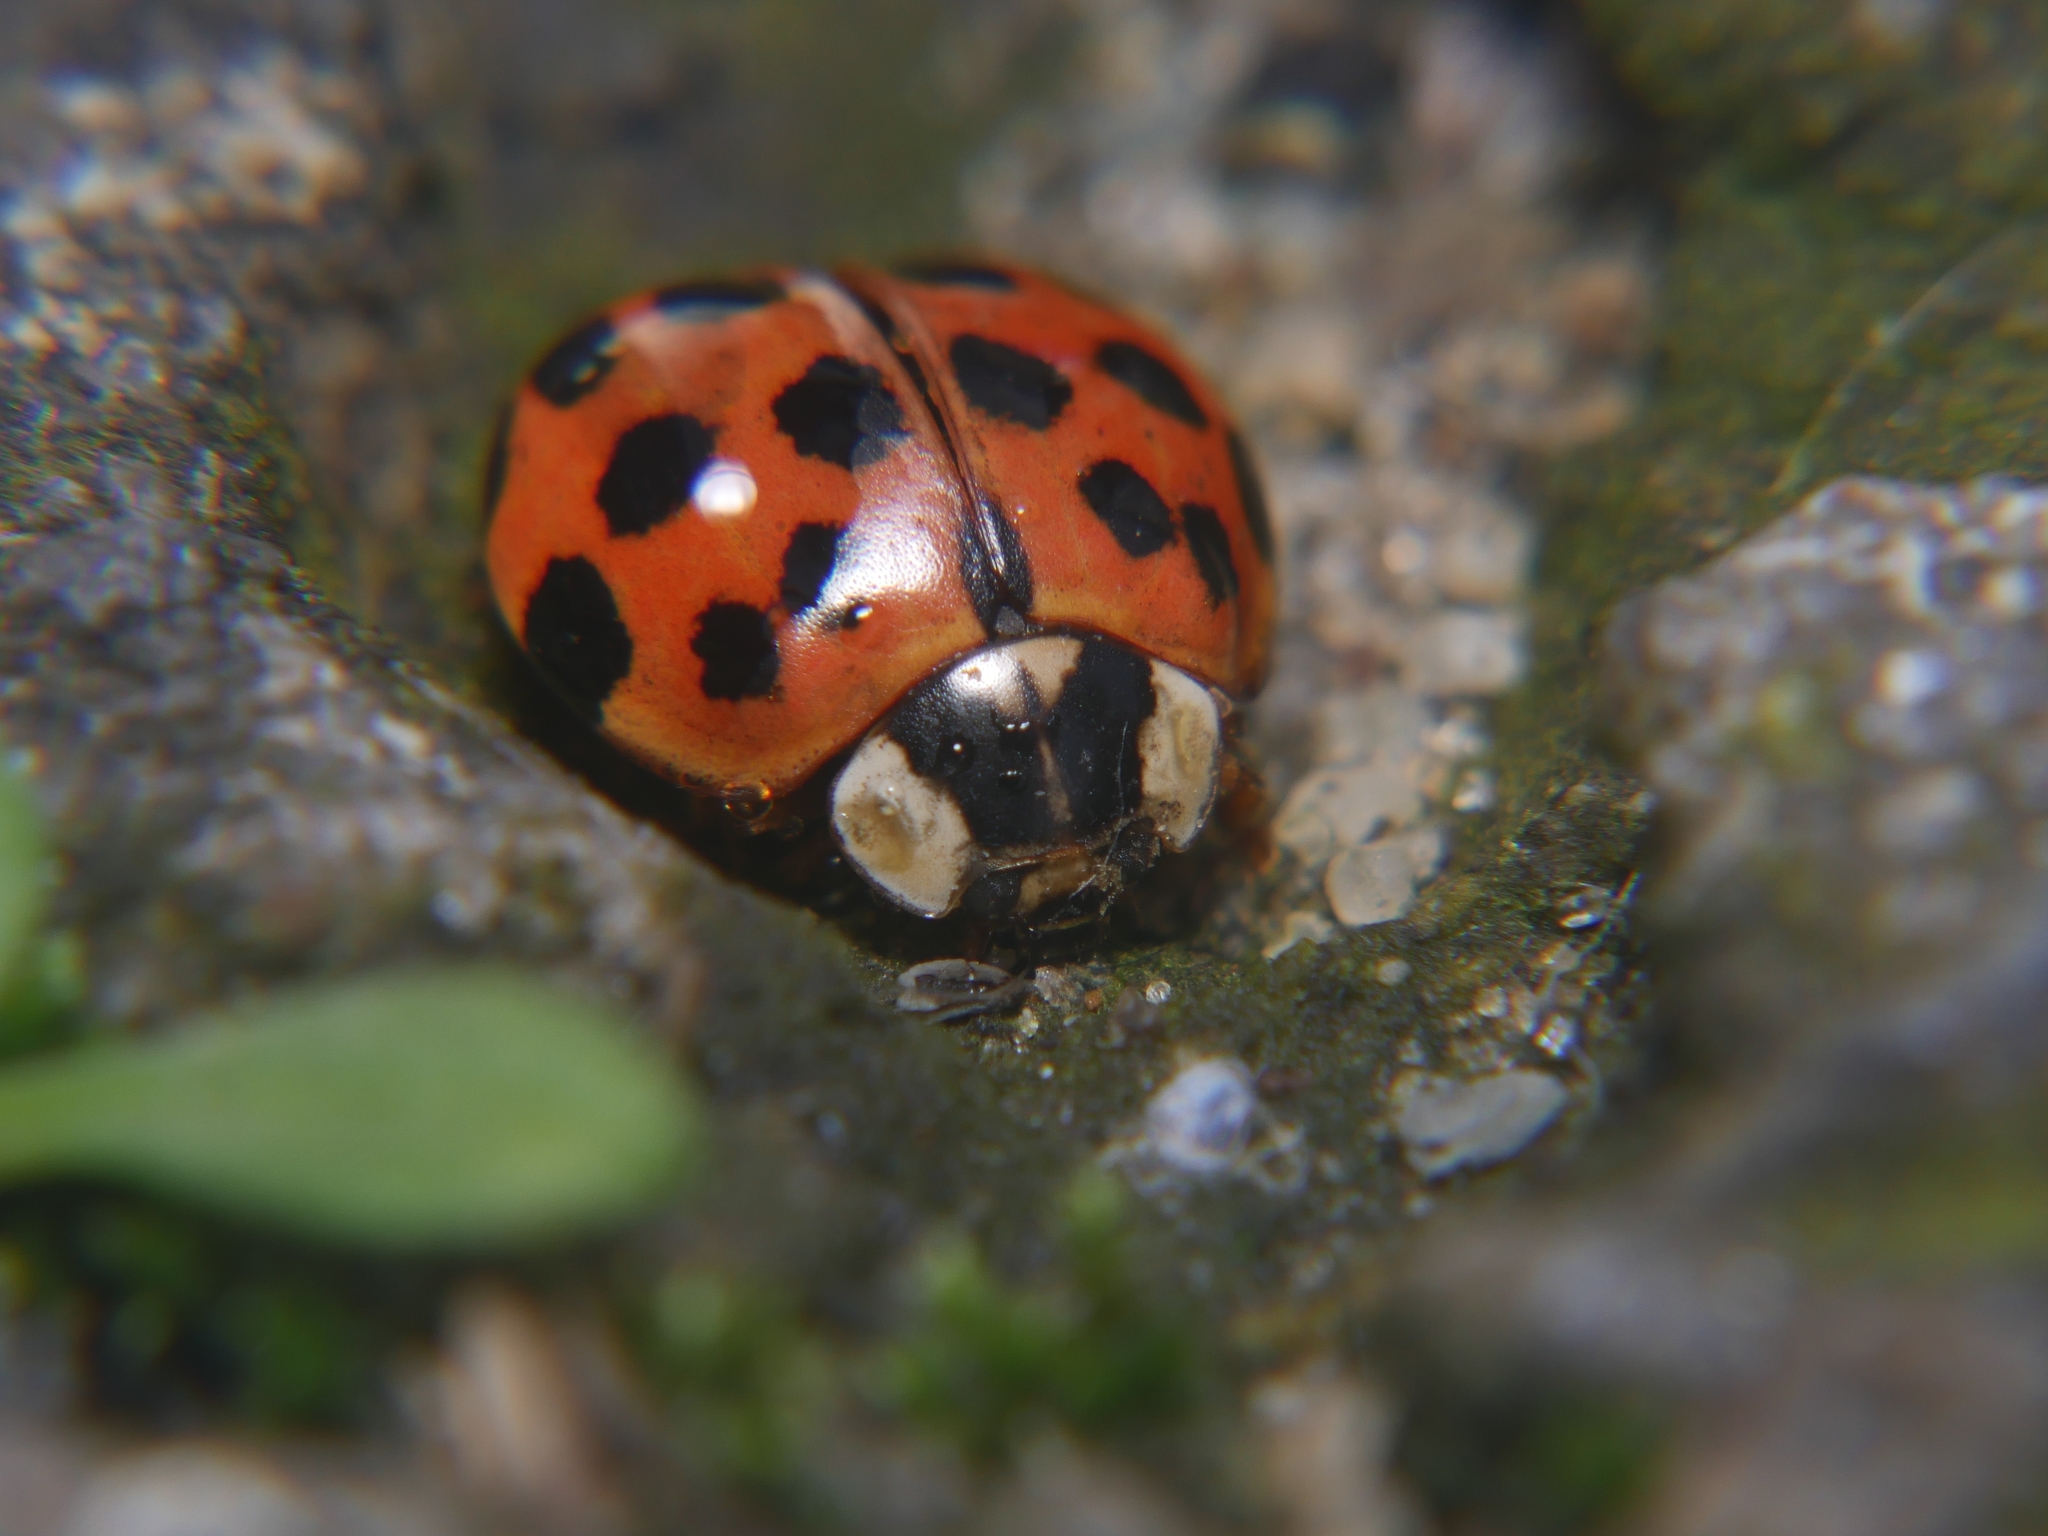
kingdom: Animalia
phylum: Arthropoda
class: Insecta
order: Coleoptera
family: Coccinellidae
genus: Harmonia
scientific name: Harmonia axyridis
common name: Harlequin ladybird
